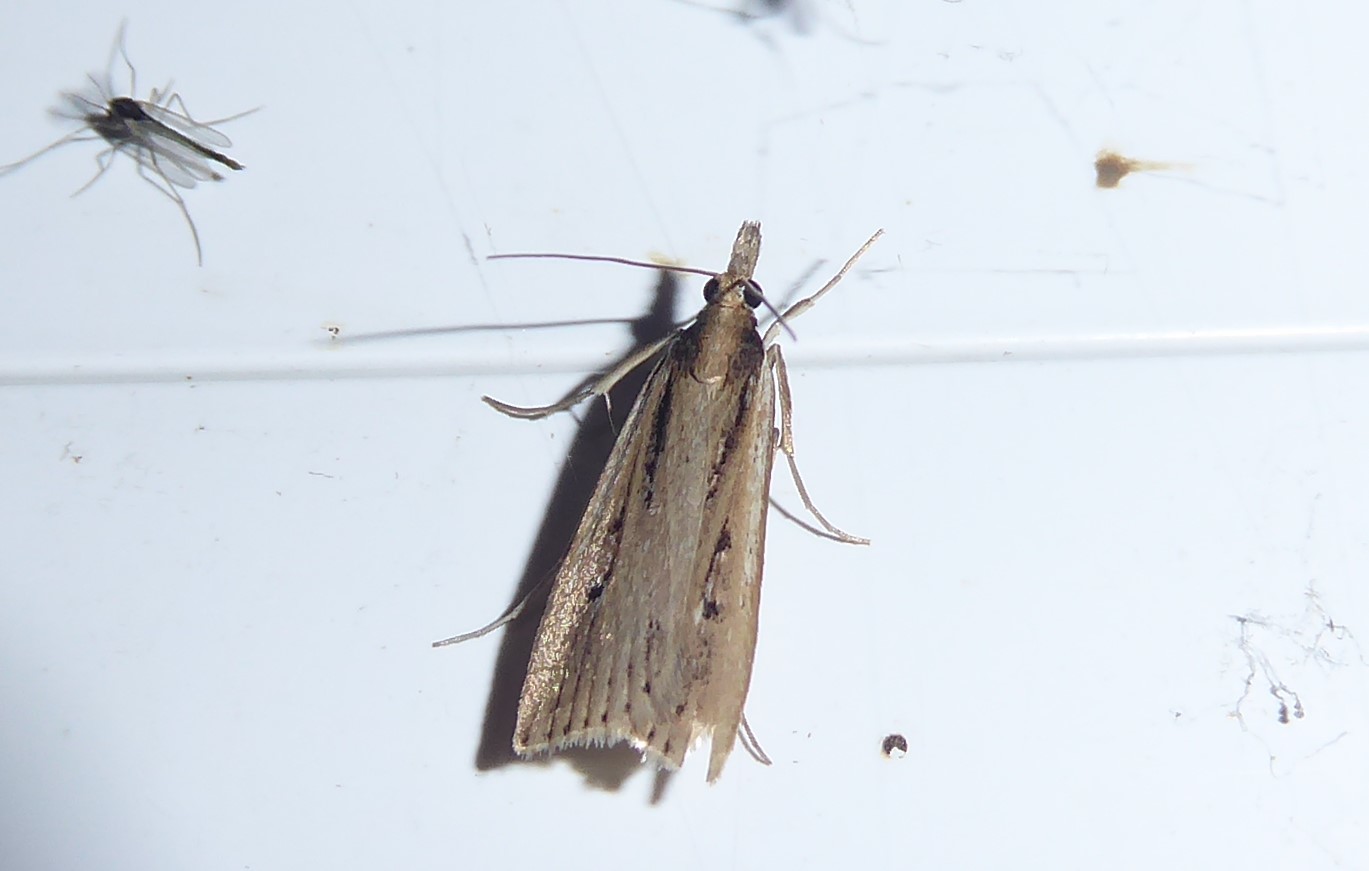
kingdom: Animalia
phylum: Arthropoda
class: Insecta
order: Lepidoptera
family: Crambidae
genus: Eudonia
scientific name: Eudonia sabulosella
